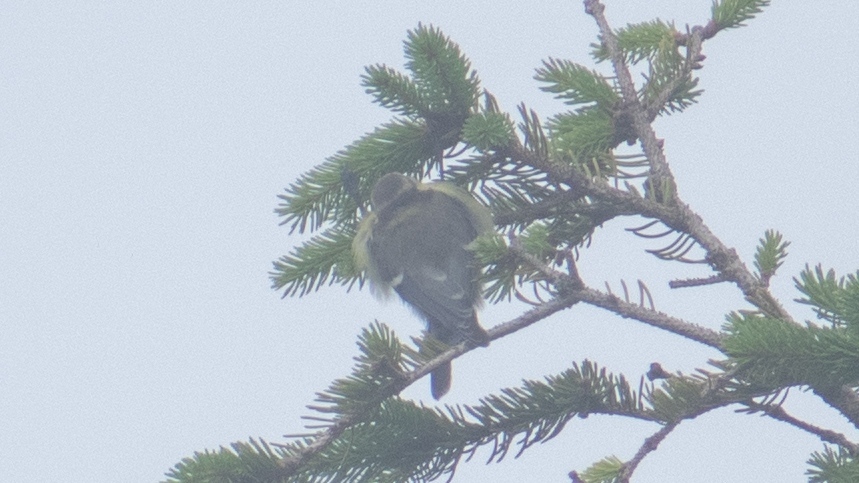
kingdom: Animalia
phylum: Chordata
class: Aves
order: Passeriformes
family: Paridae
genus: Cyanistes
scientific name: Cyanistes caeruleus
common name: Eurasian blue tit
